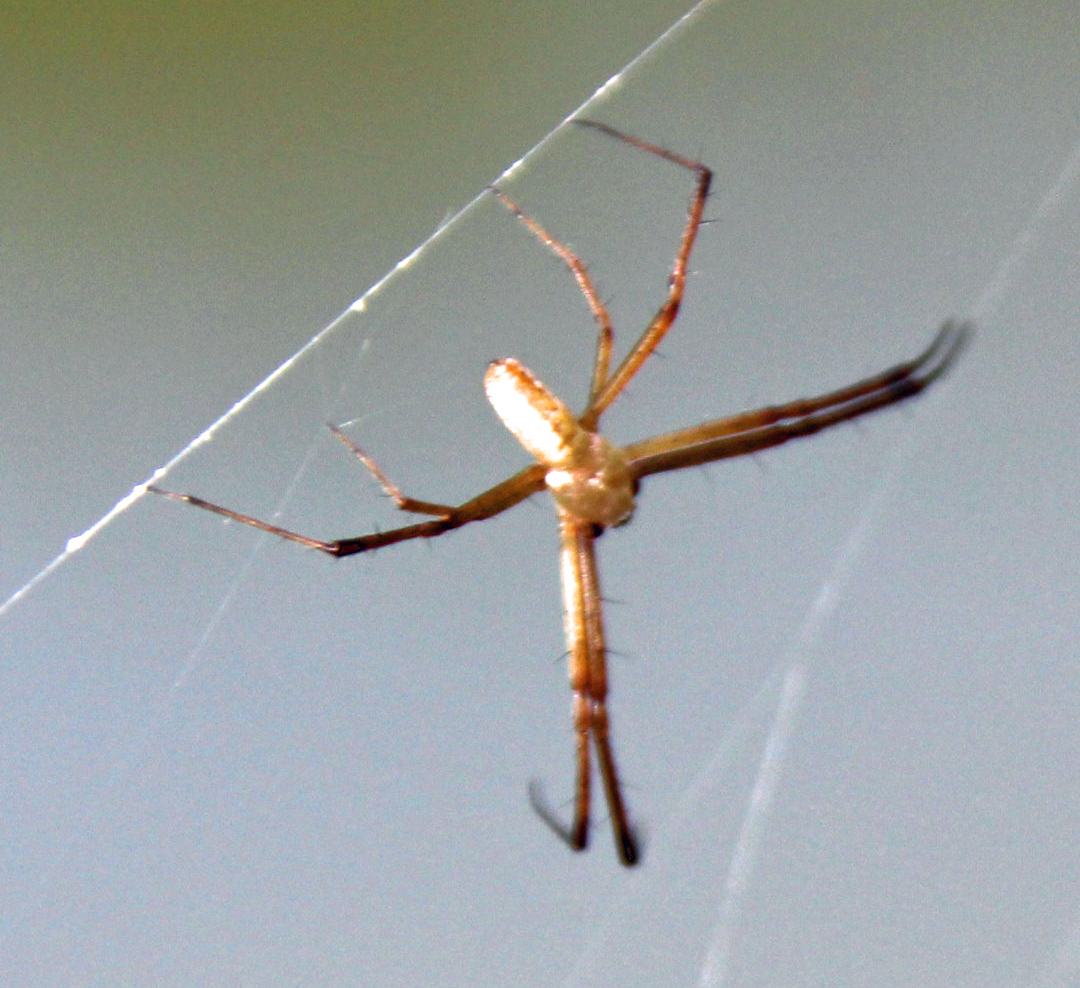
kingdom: Animalia
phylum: Arthropoda
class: Arachnida
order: Araneae
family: Araneidae
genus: Argiope
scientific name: Argiope trifasciata
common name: Banded garden spider
